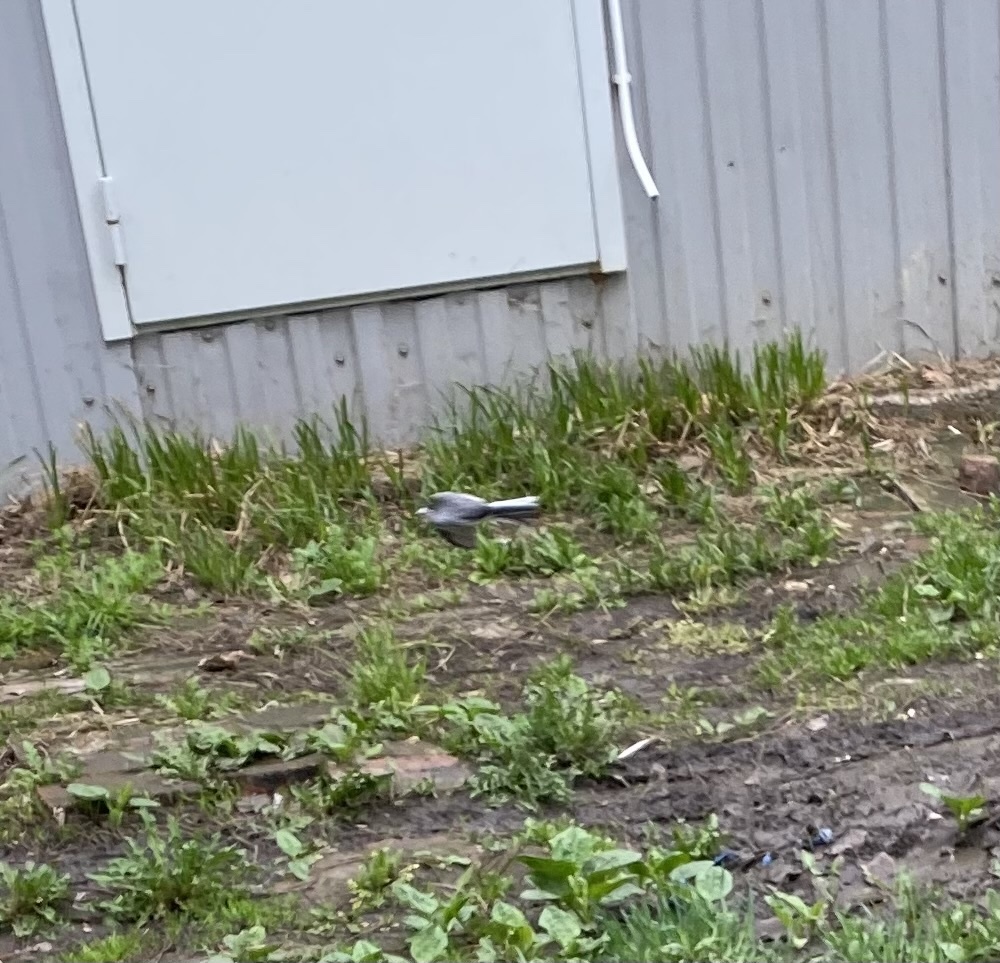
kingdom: Animalia
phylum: Chordata
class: Aves
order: Passeriformes
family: Motacillidae
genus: Motacilla
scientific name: Motacilla alba
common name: White wagtail
